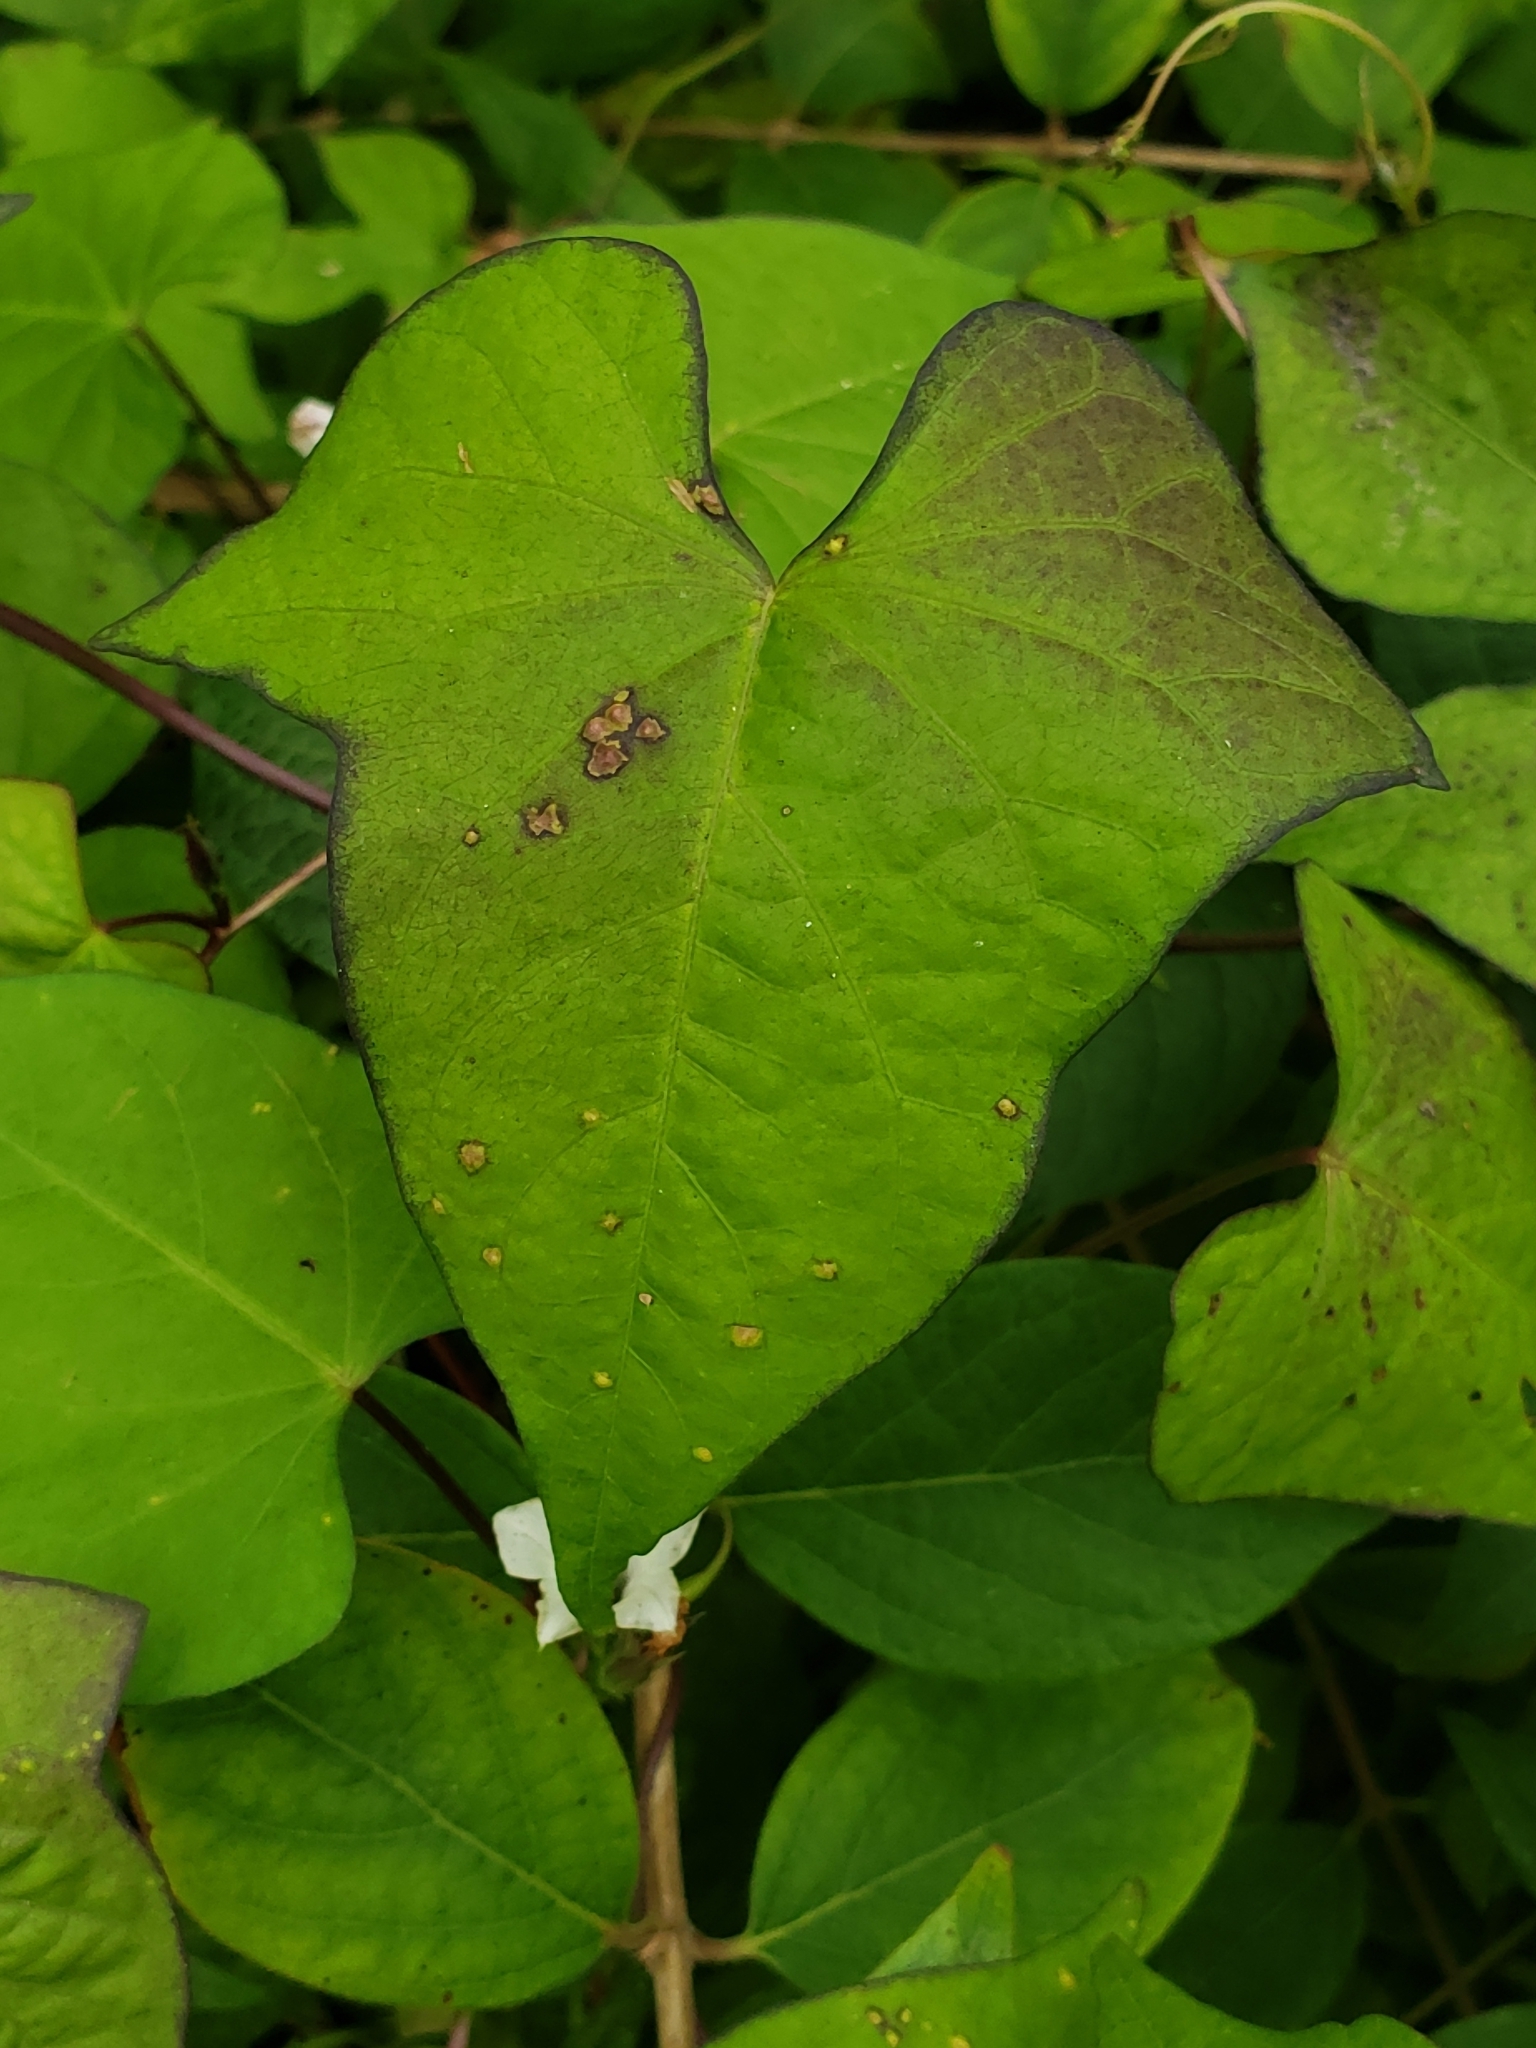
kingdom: Plantae
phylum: Tracheophyta
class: Magnoliopsida
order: Solanales
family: Convolvulaceae
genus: Ipomoea
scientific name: Ipomoea lacunosa
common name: White morning-glory
